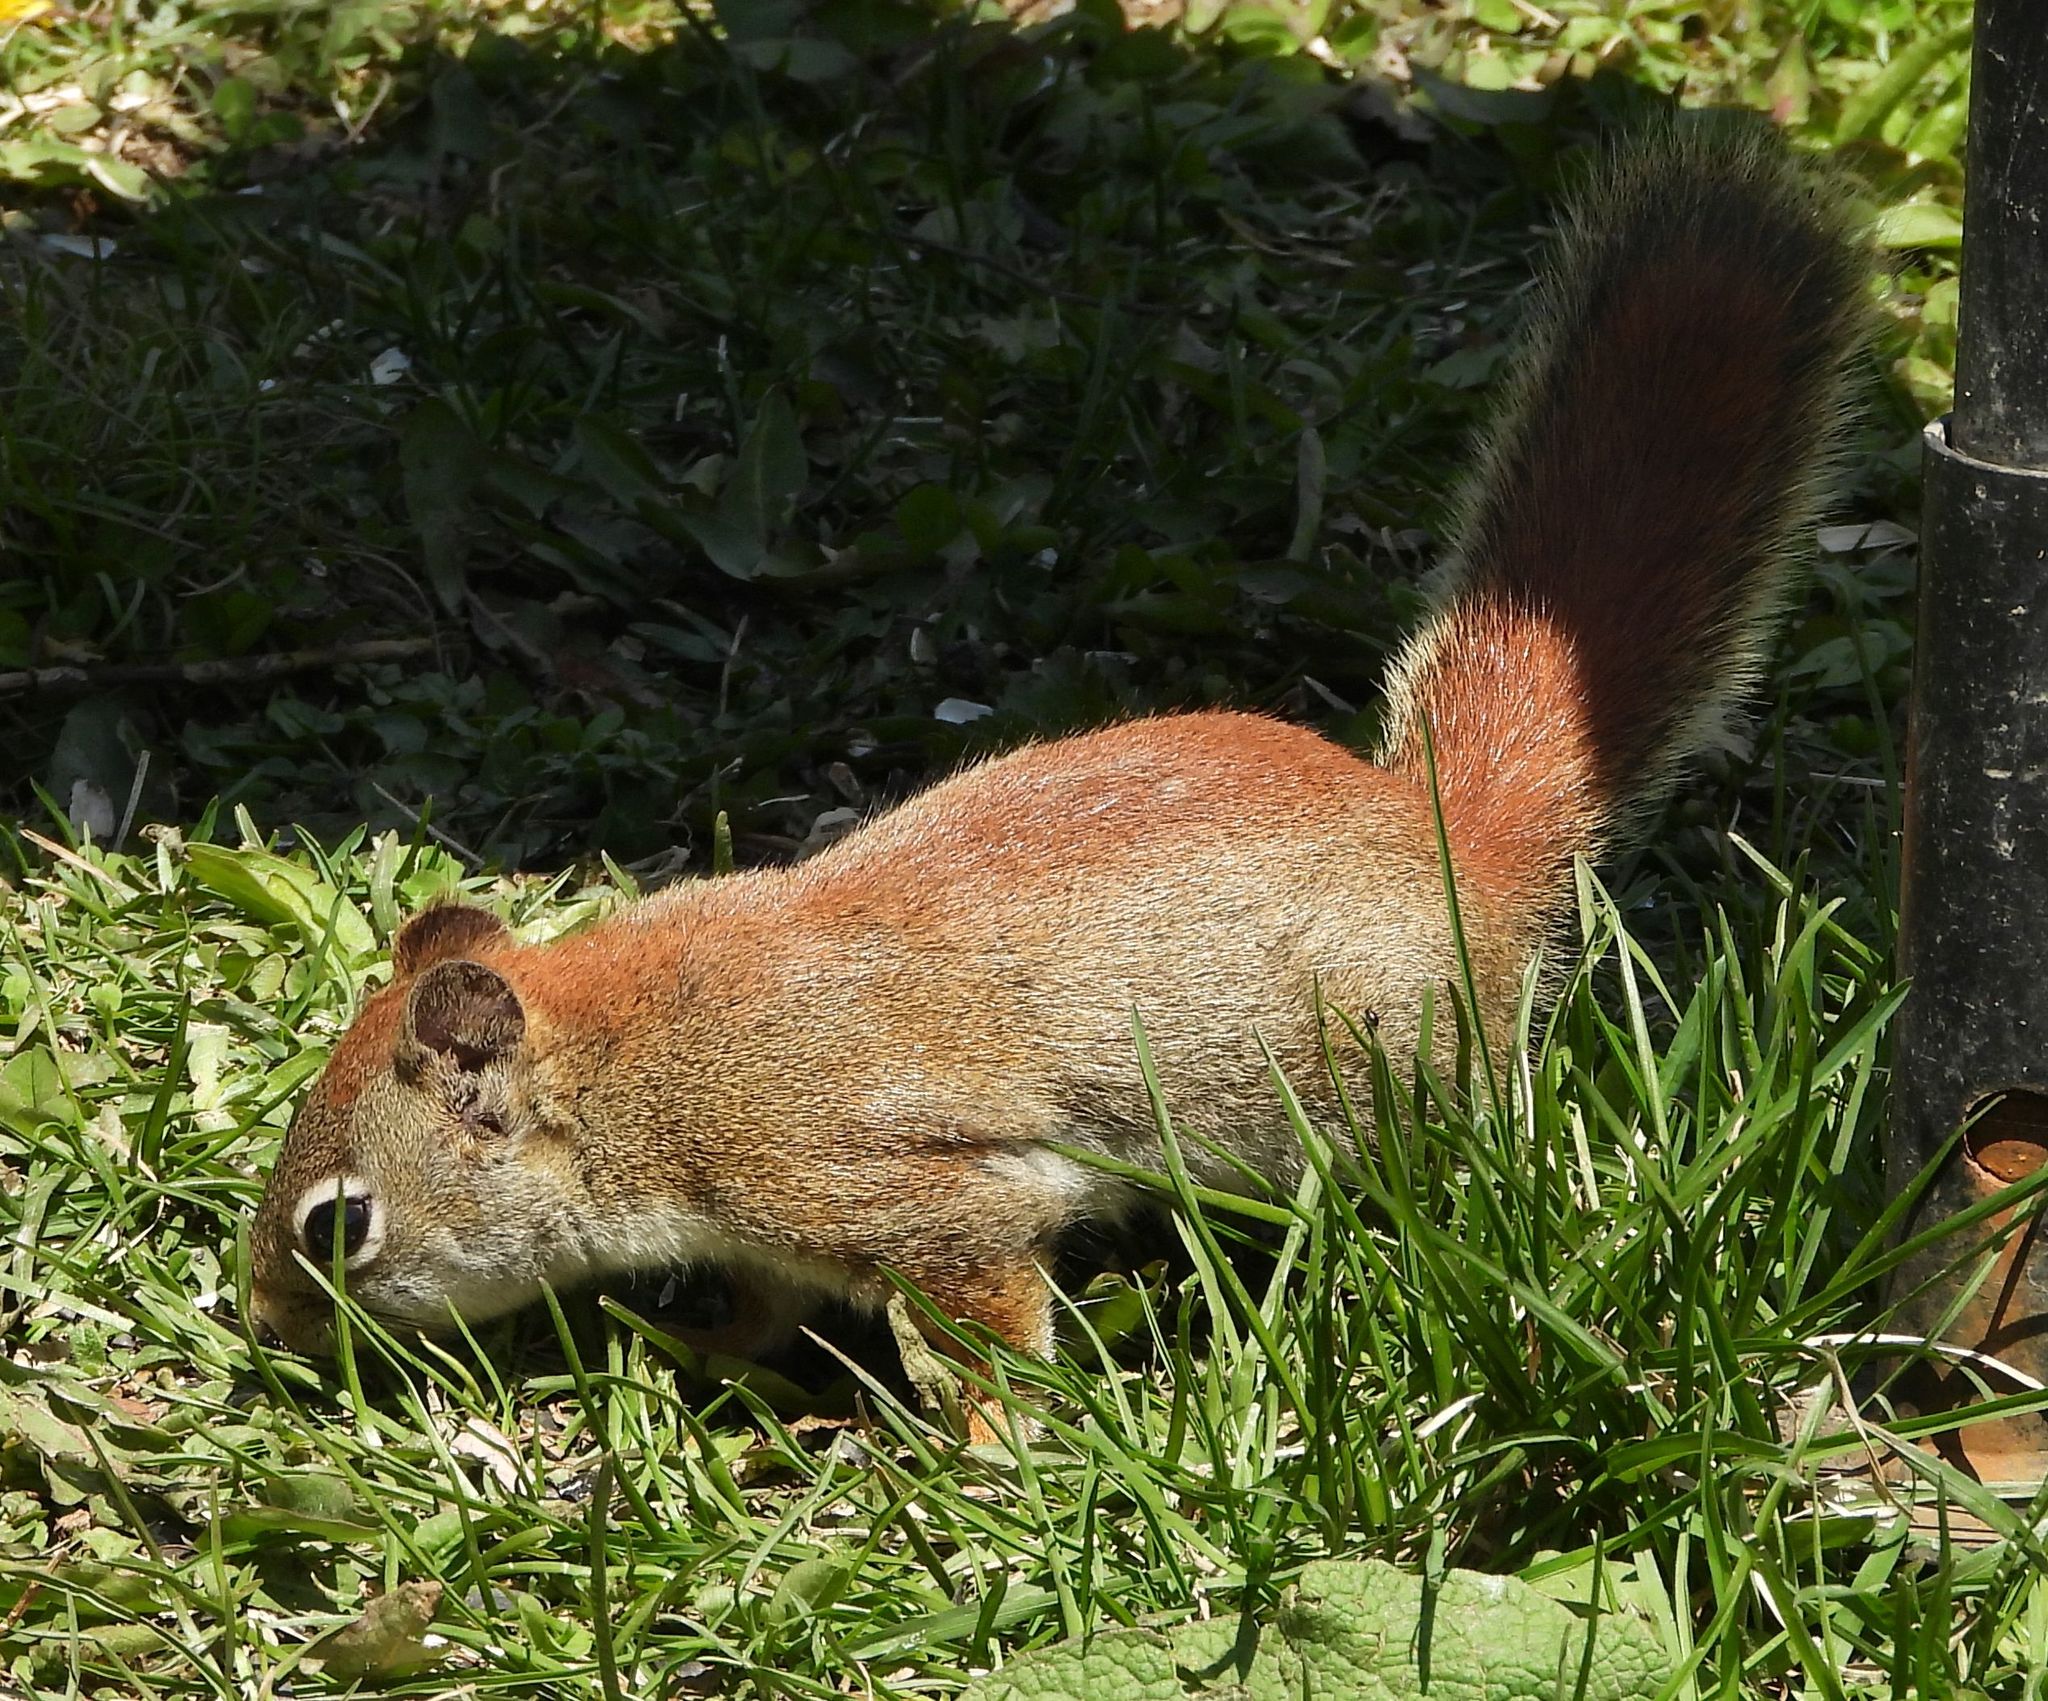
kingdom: Animalia
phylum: Chordata
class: Mammalia
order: Rodentia
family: Sciuridae
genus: Tamiasciurus
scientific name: Tamiasciurus hudsonicus
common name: Red squirrel
